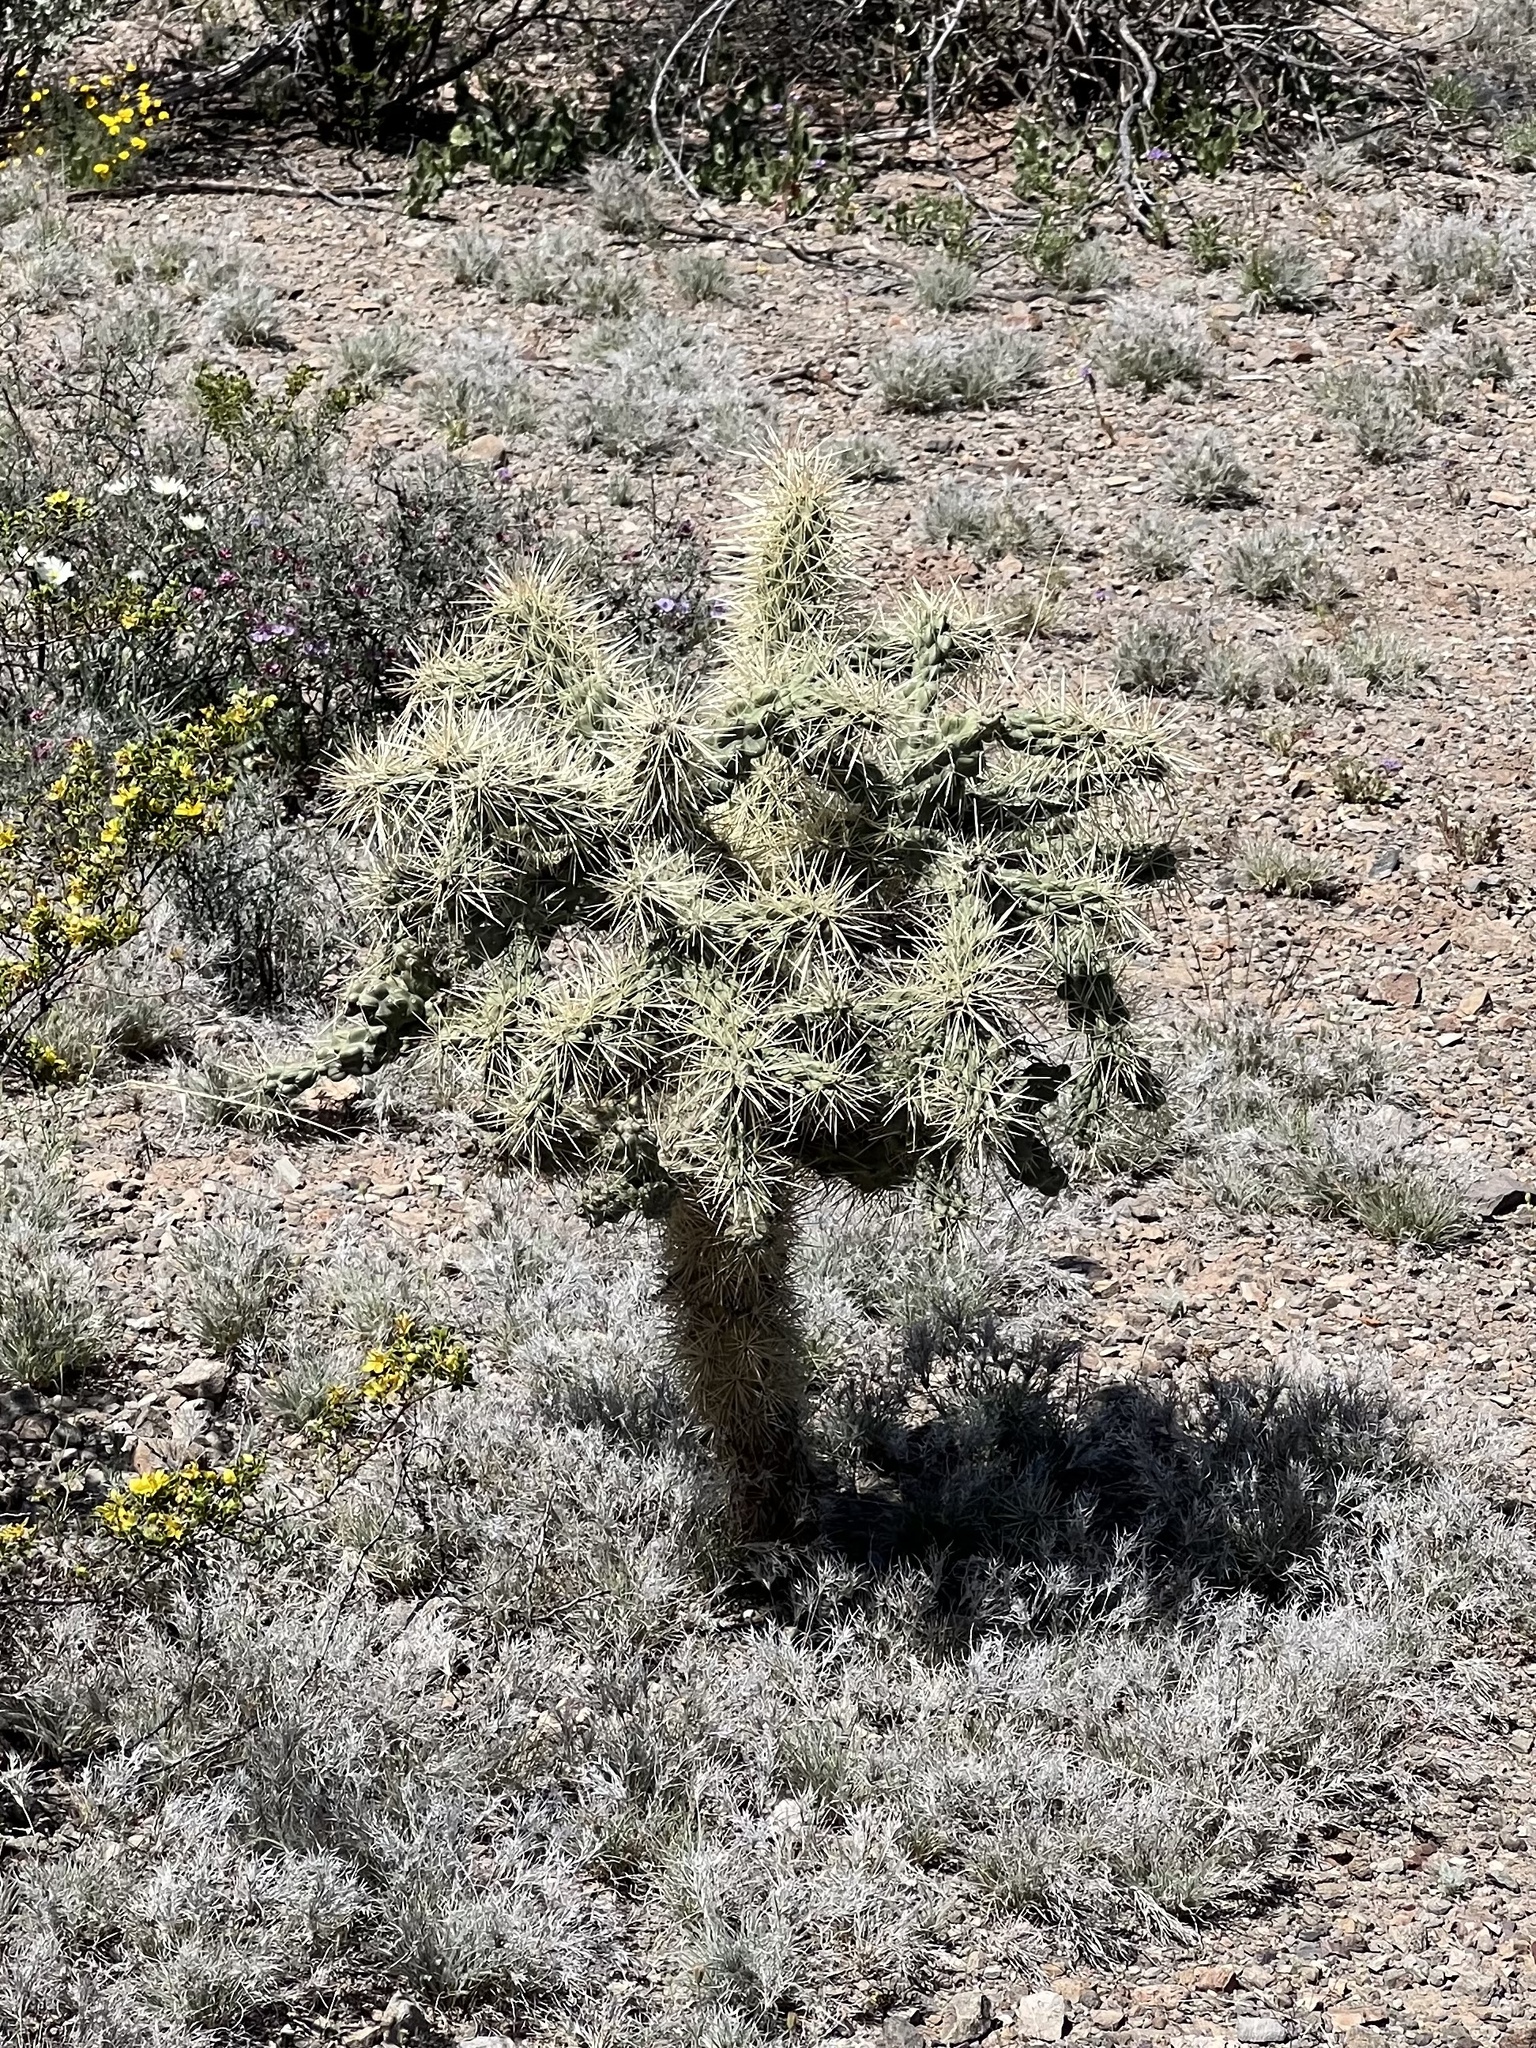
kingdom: Plantae
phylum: Tracheophyta
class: Magnoliopsida
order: Caryophyllales
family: Cactaceae
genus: Cylindropuntia
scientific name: Cylindropuntia fulgida
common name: Jumping cholla
